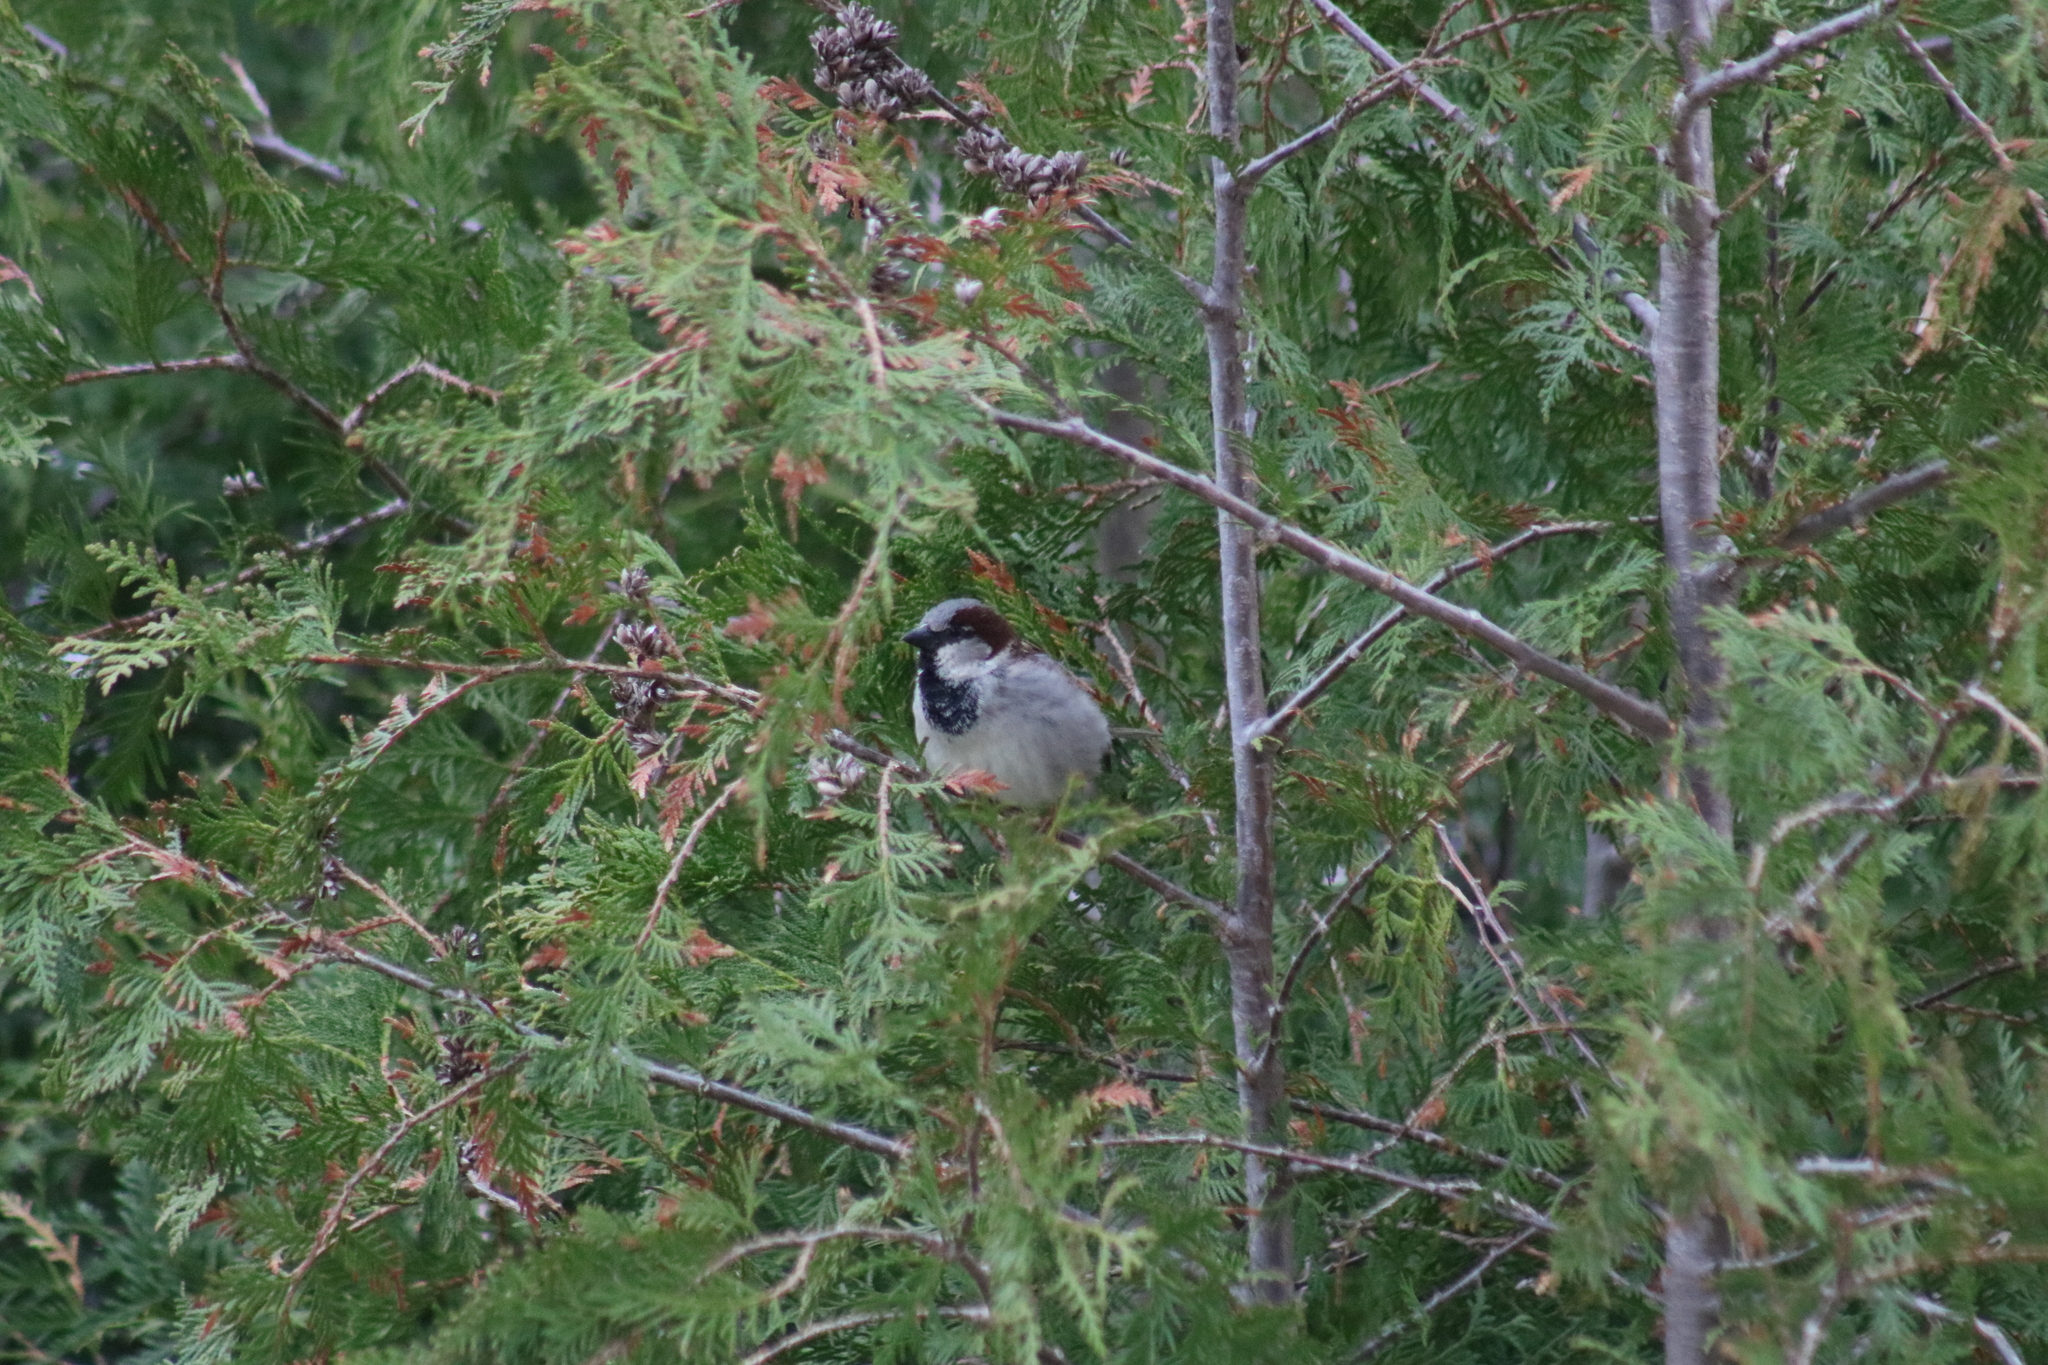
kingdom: Animalia
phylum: Chordata
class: Aves
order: Passeriformes
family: Passeridae
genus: Passer
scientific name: Passer domesticus
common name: House sparrow
